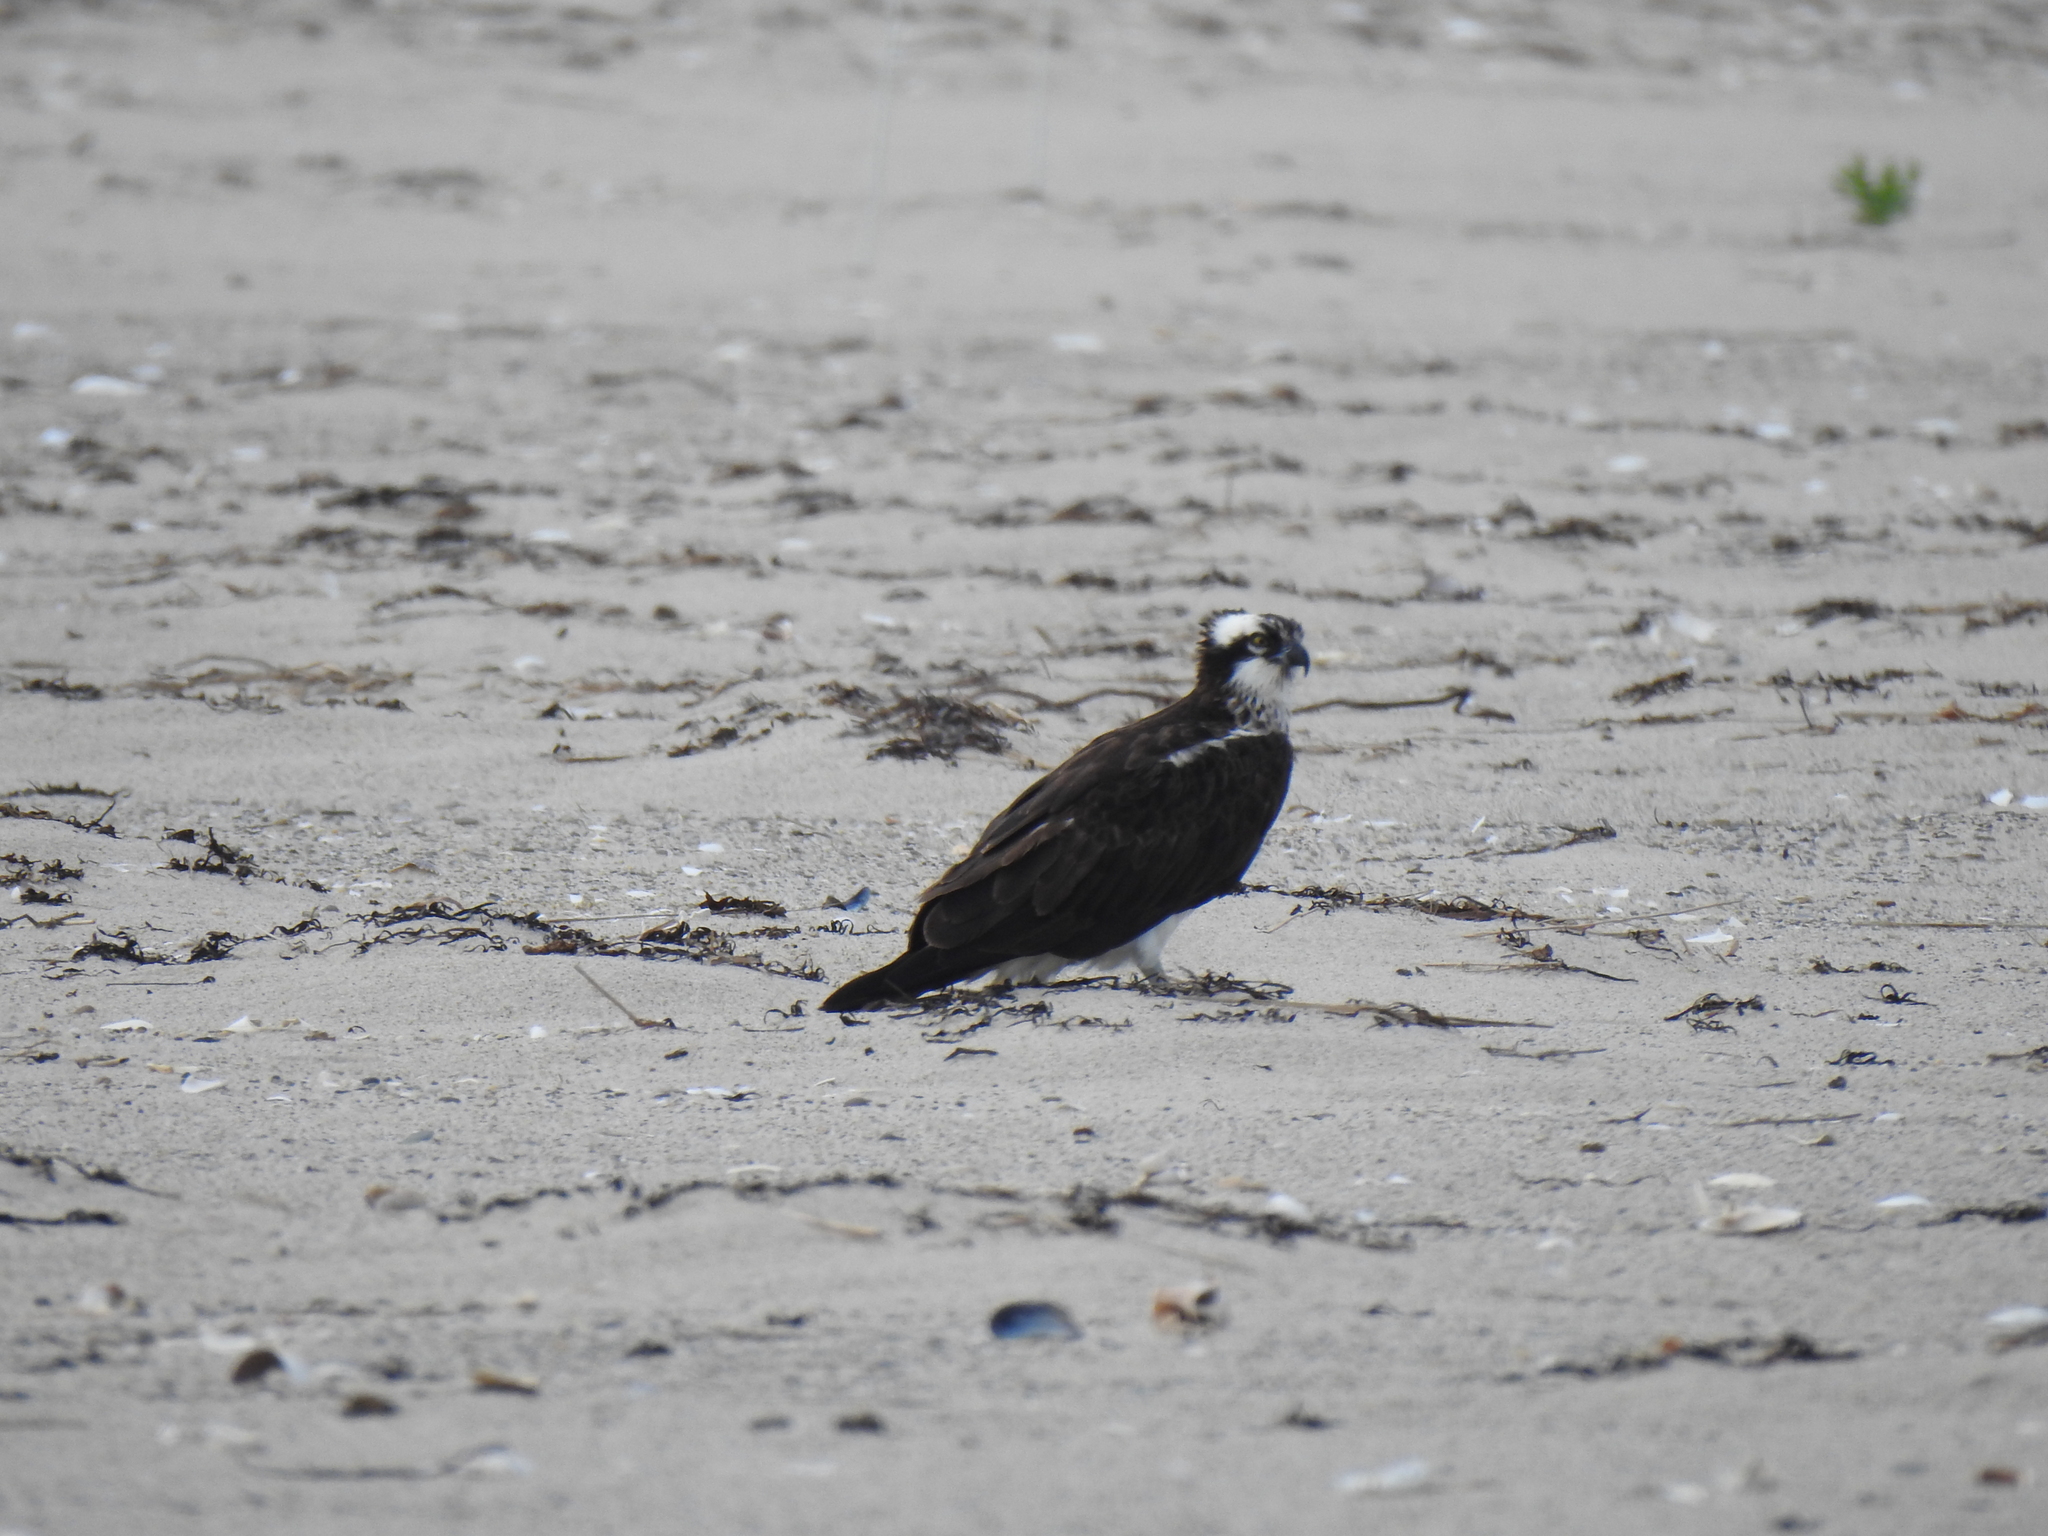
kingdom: Animalia
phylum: Chordata
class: Aves
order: Accipitriformes
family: Pandionidae
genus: Pandion
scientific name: Pandion haliaetus
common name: Osprey
